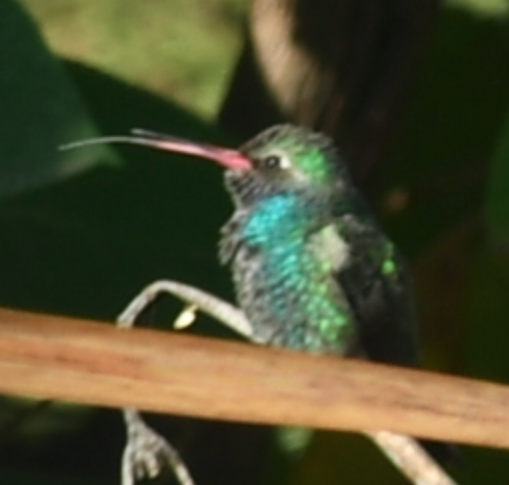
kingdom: Animalia
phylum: Chordata
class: Aves
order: Apodiformes
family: Trochilidae
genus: Cynanthus
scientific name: Cynanthus latirostris
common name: Broad-billed hummingbird
